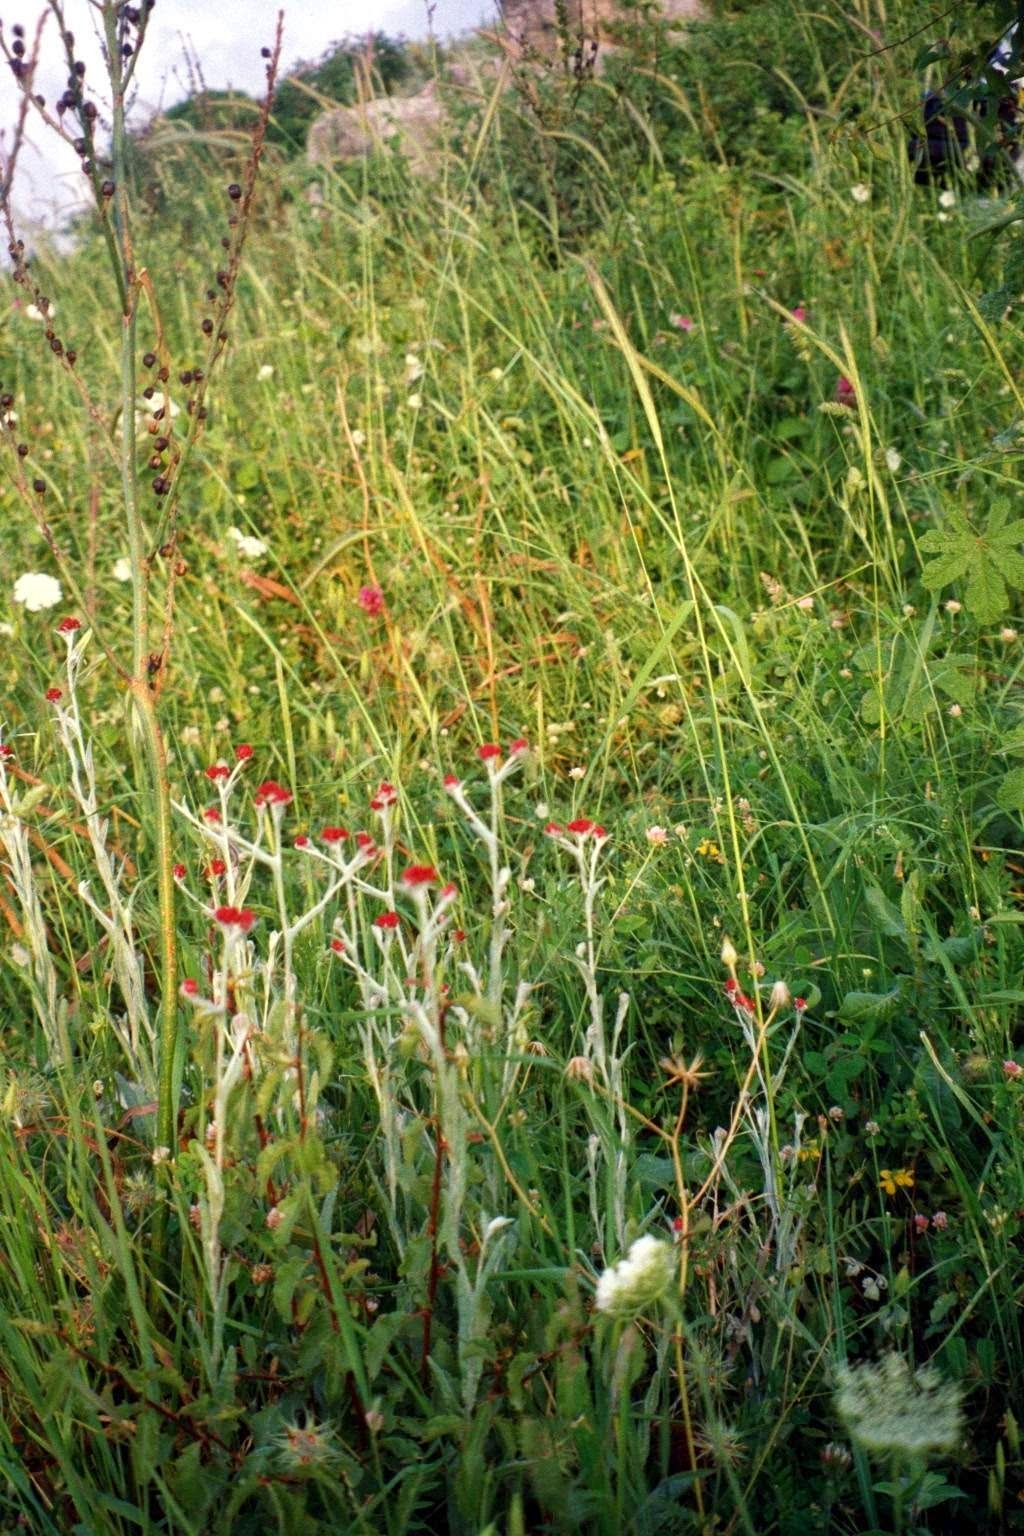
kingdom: Plantae
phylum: Tracheophyta
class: Magnoliopsida
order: Asterales
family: Asteraceae
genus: Helichrysum
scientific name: Helichrysum sanguineum
